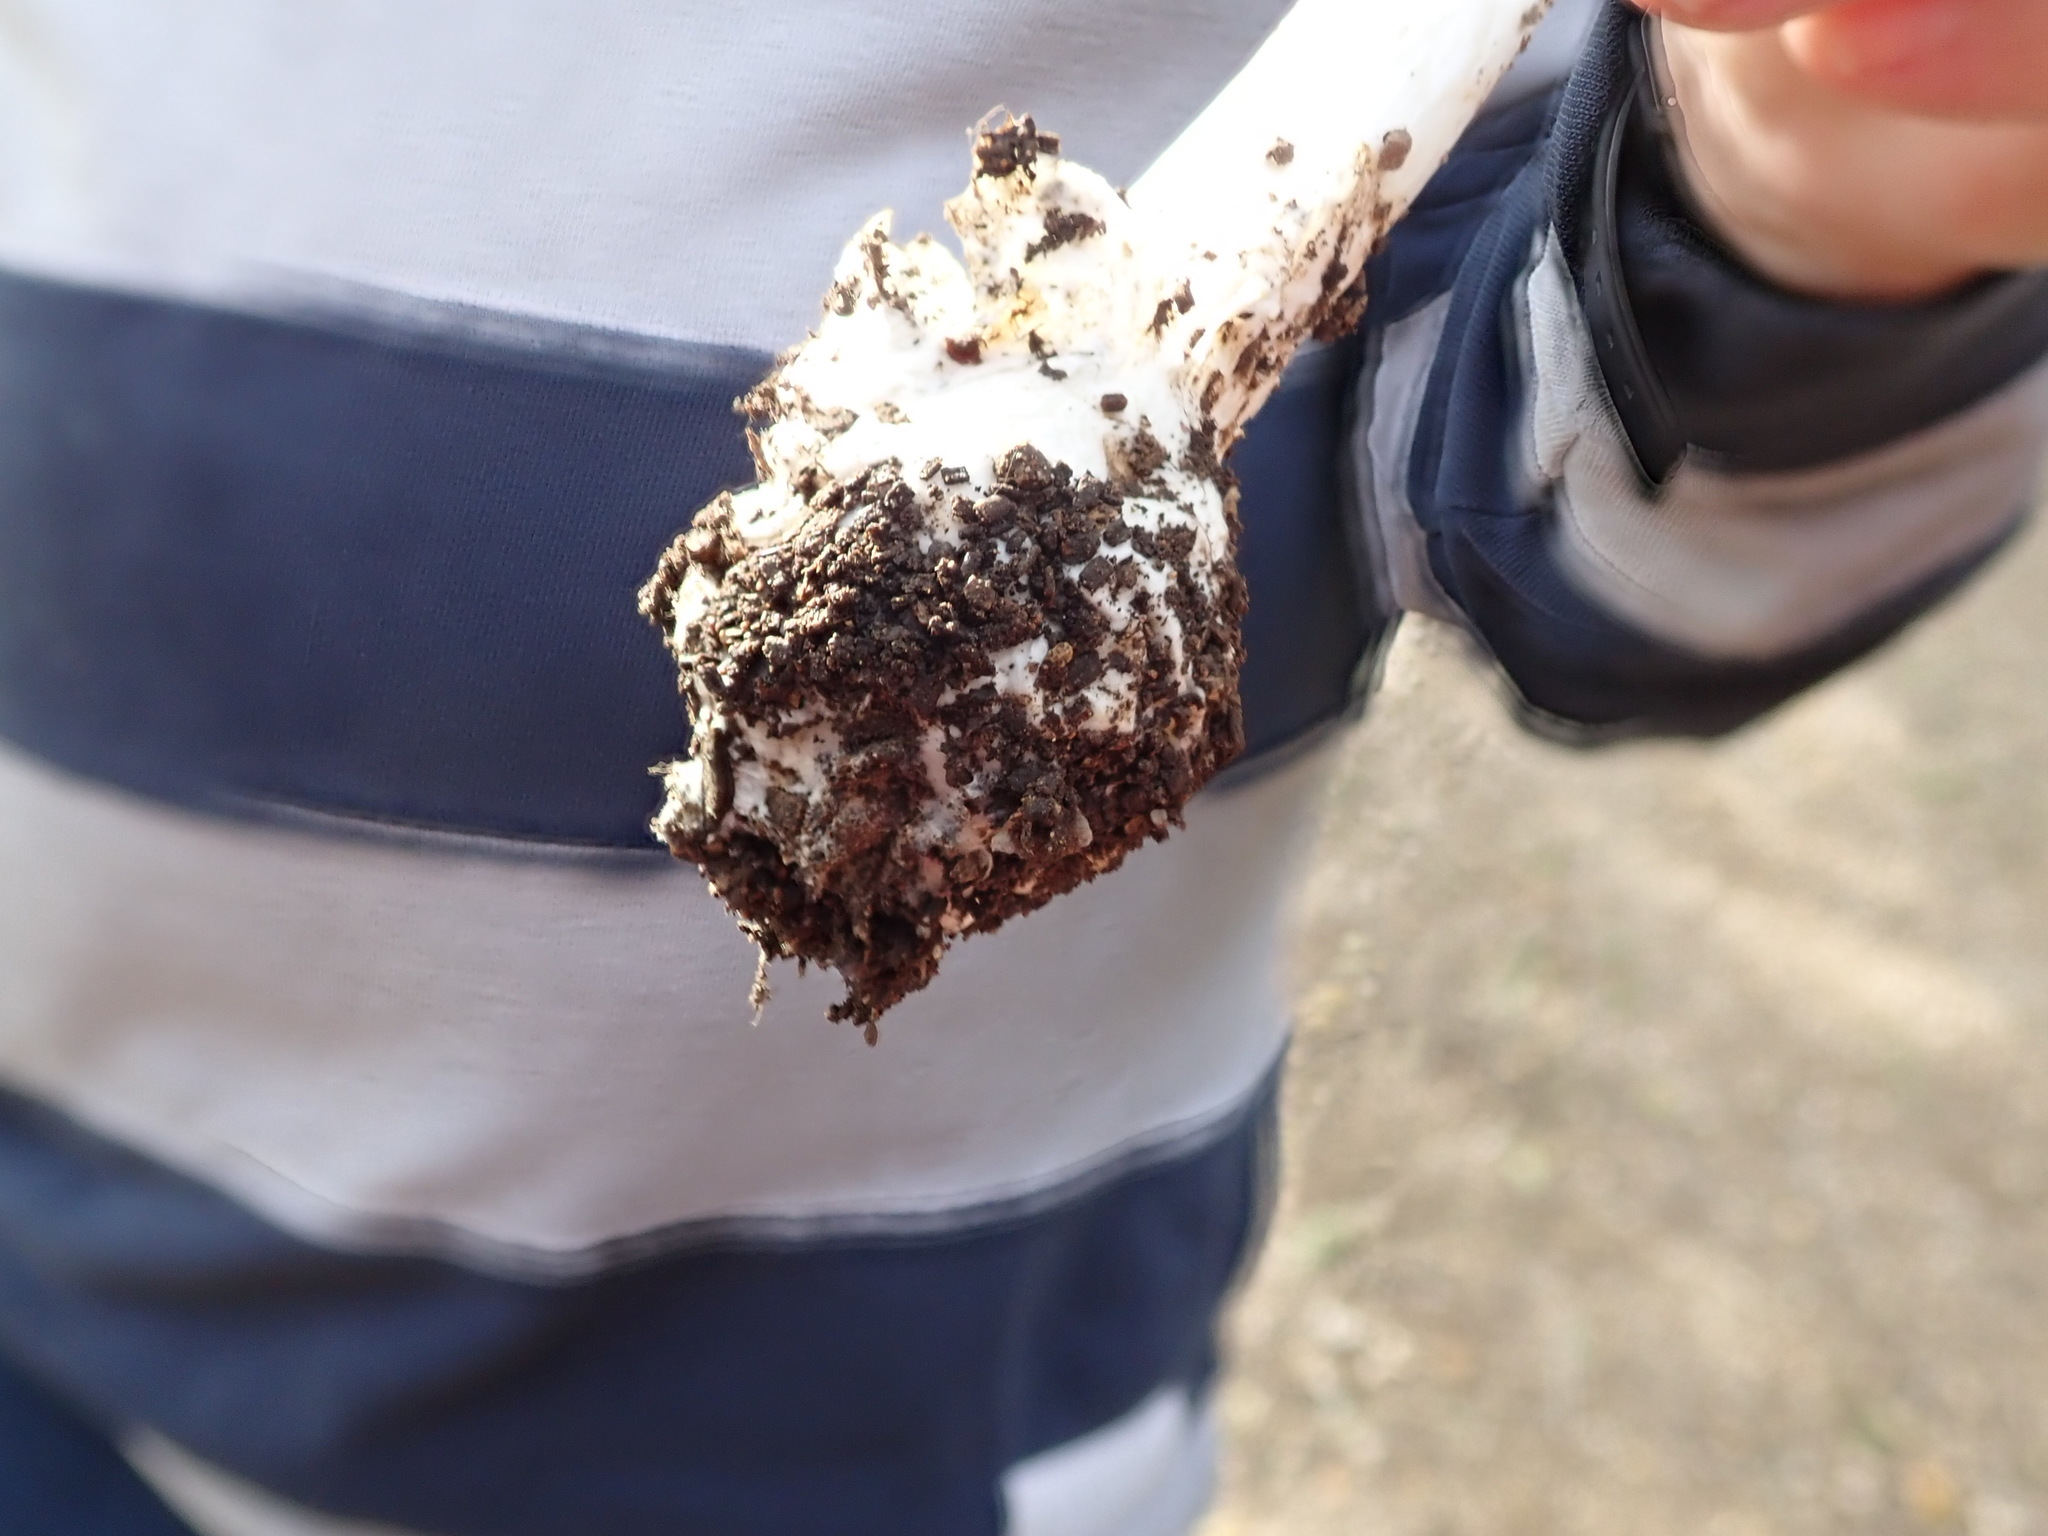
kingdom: Fungi
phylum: Basidiomycota
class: Agaricomycetes
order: Agaricales
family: Amanitaceae
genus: Amanita
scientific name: Amanita phalloides
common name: Death cap
